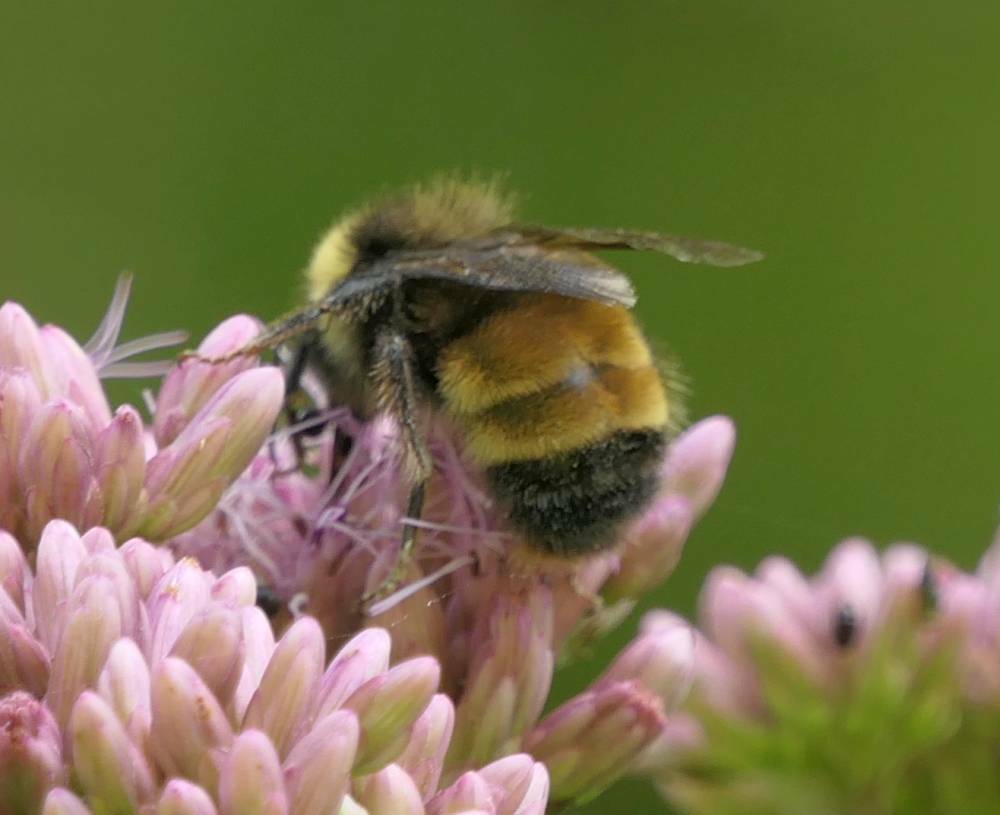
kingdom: Animalia
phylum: Arthropoda
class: Insecta
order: Hymenoptera
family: Apidae
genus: Bombus
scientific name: Bombus terricola
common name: Yellow-banded bumble bee
